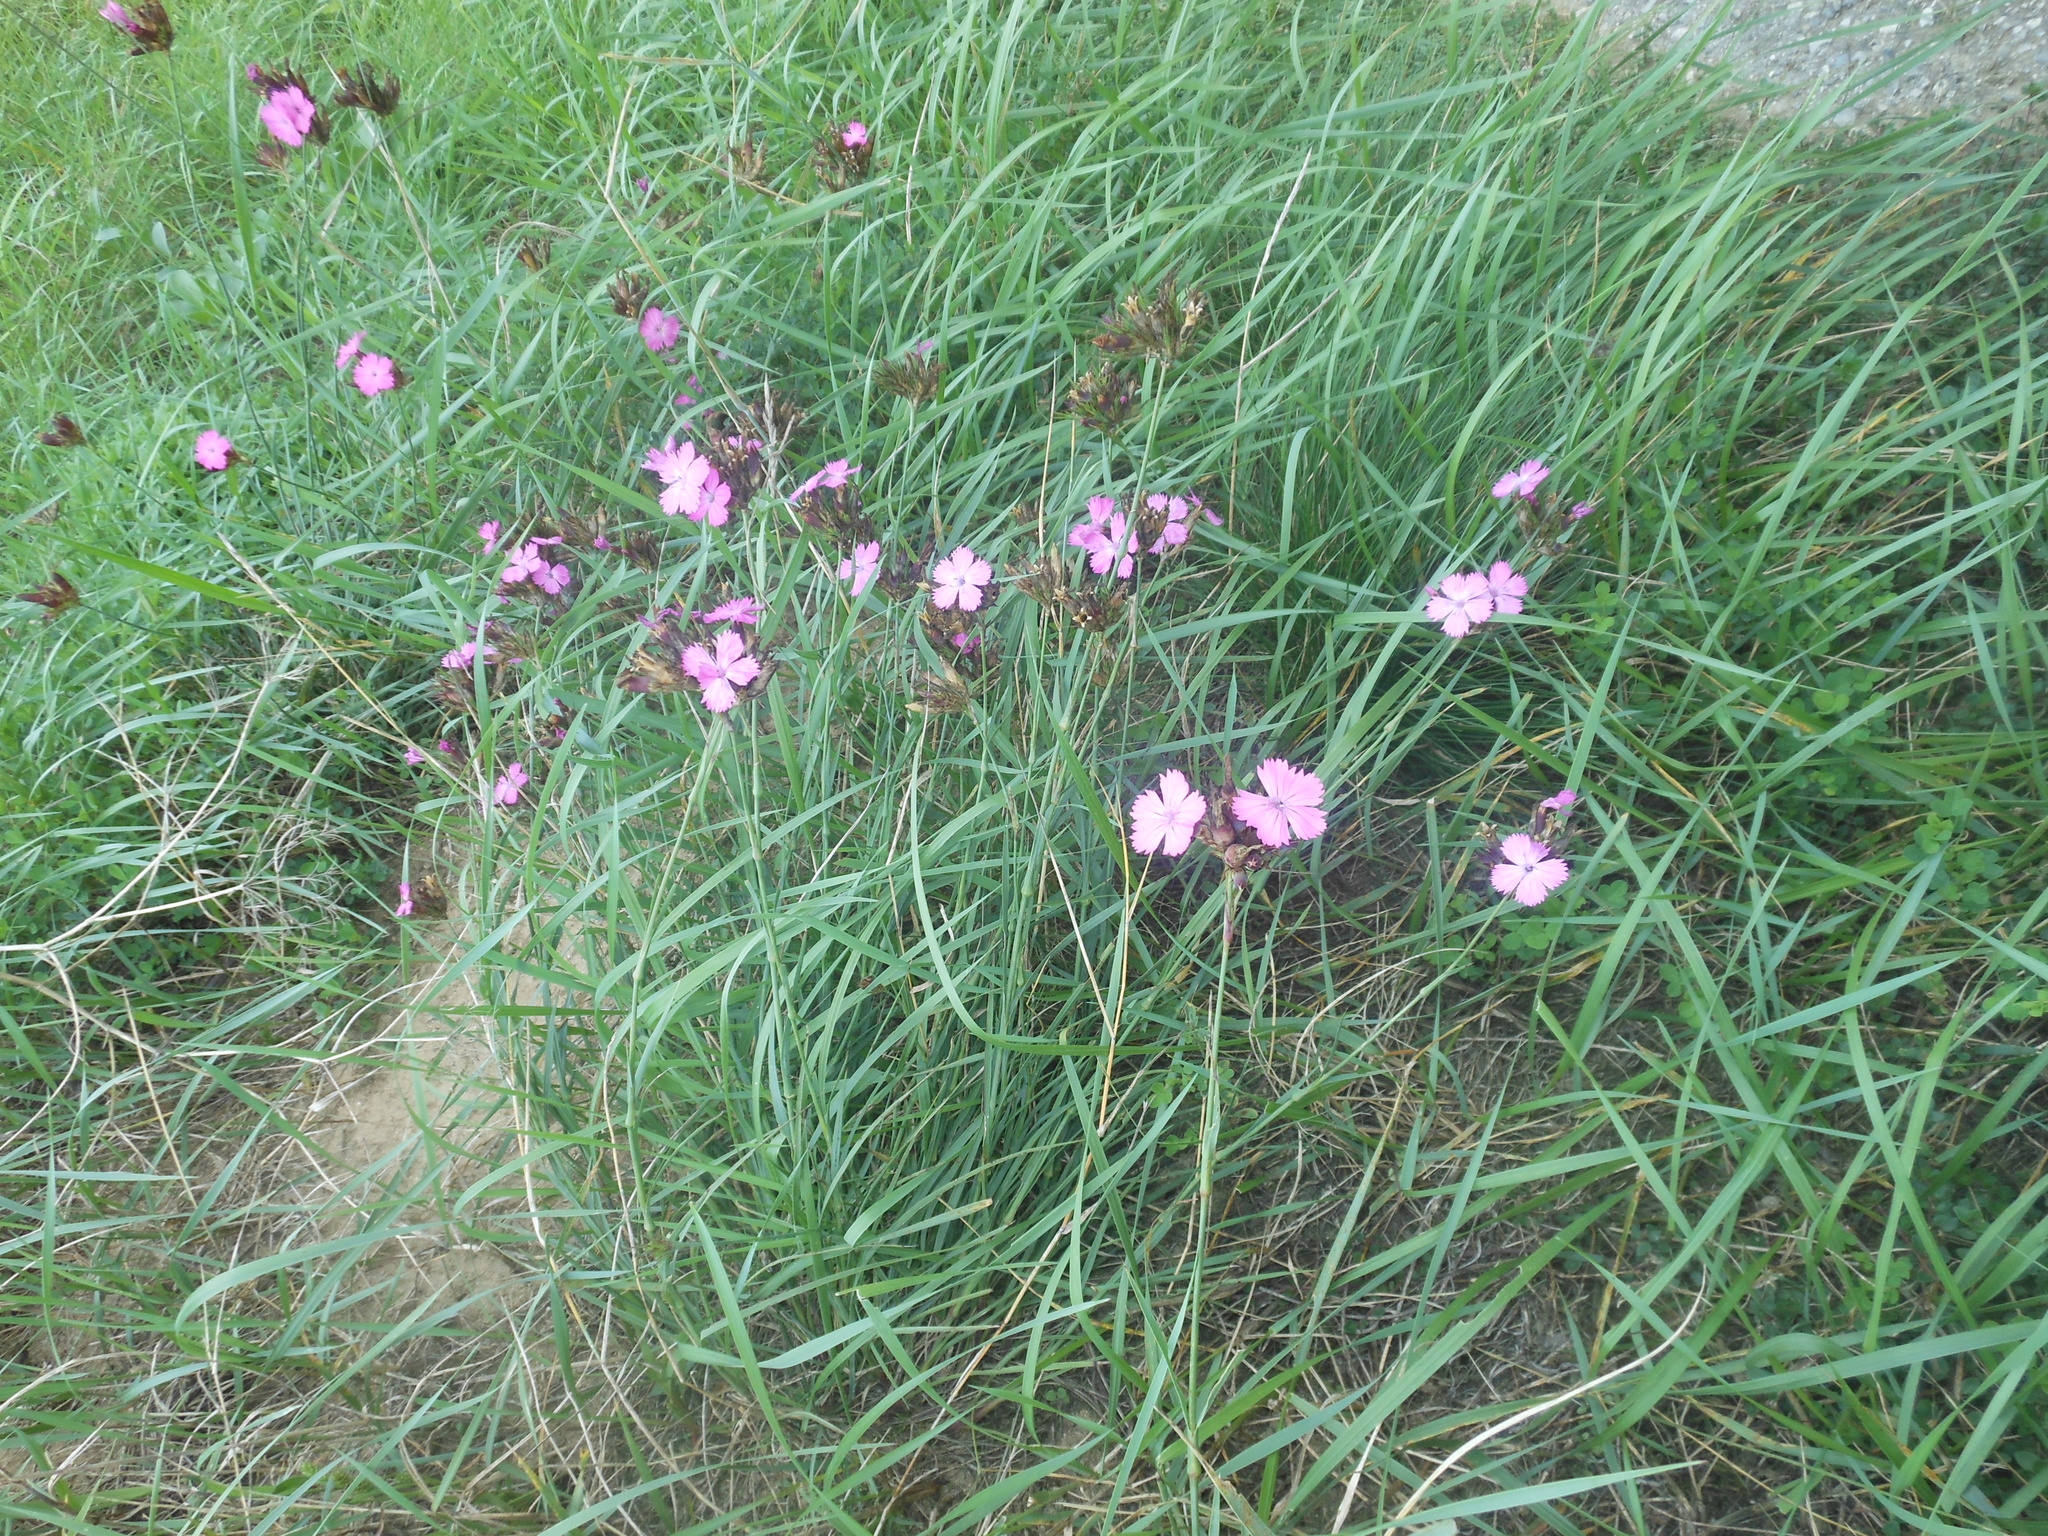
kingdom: Plantae
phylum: Tracheophyta
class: Magnoliopsida
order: Caryophyllales
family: Caryophyllaceae
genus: Dianthus
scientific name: Dianthus carthusianorum
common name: Carthusian pink
